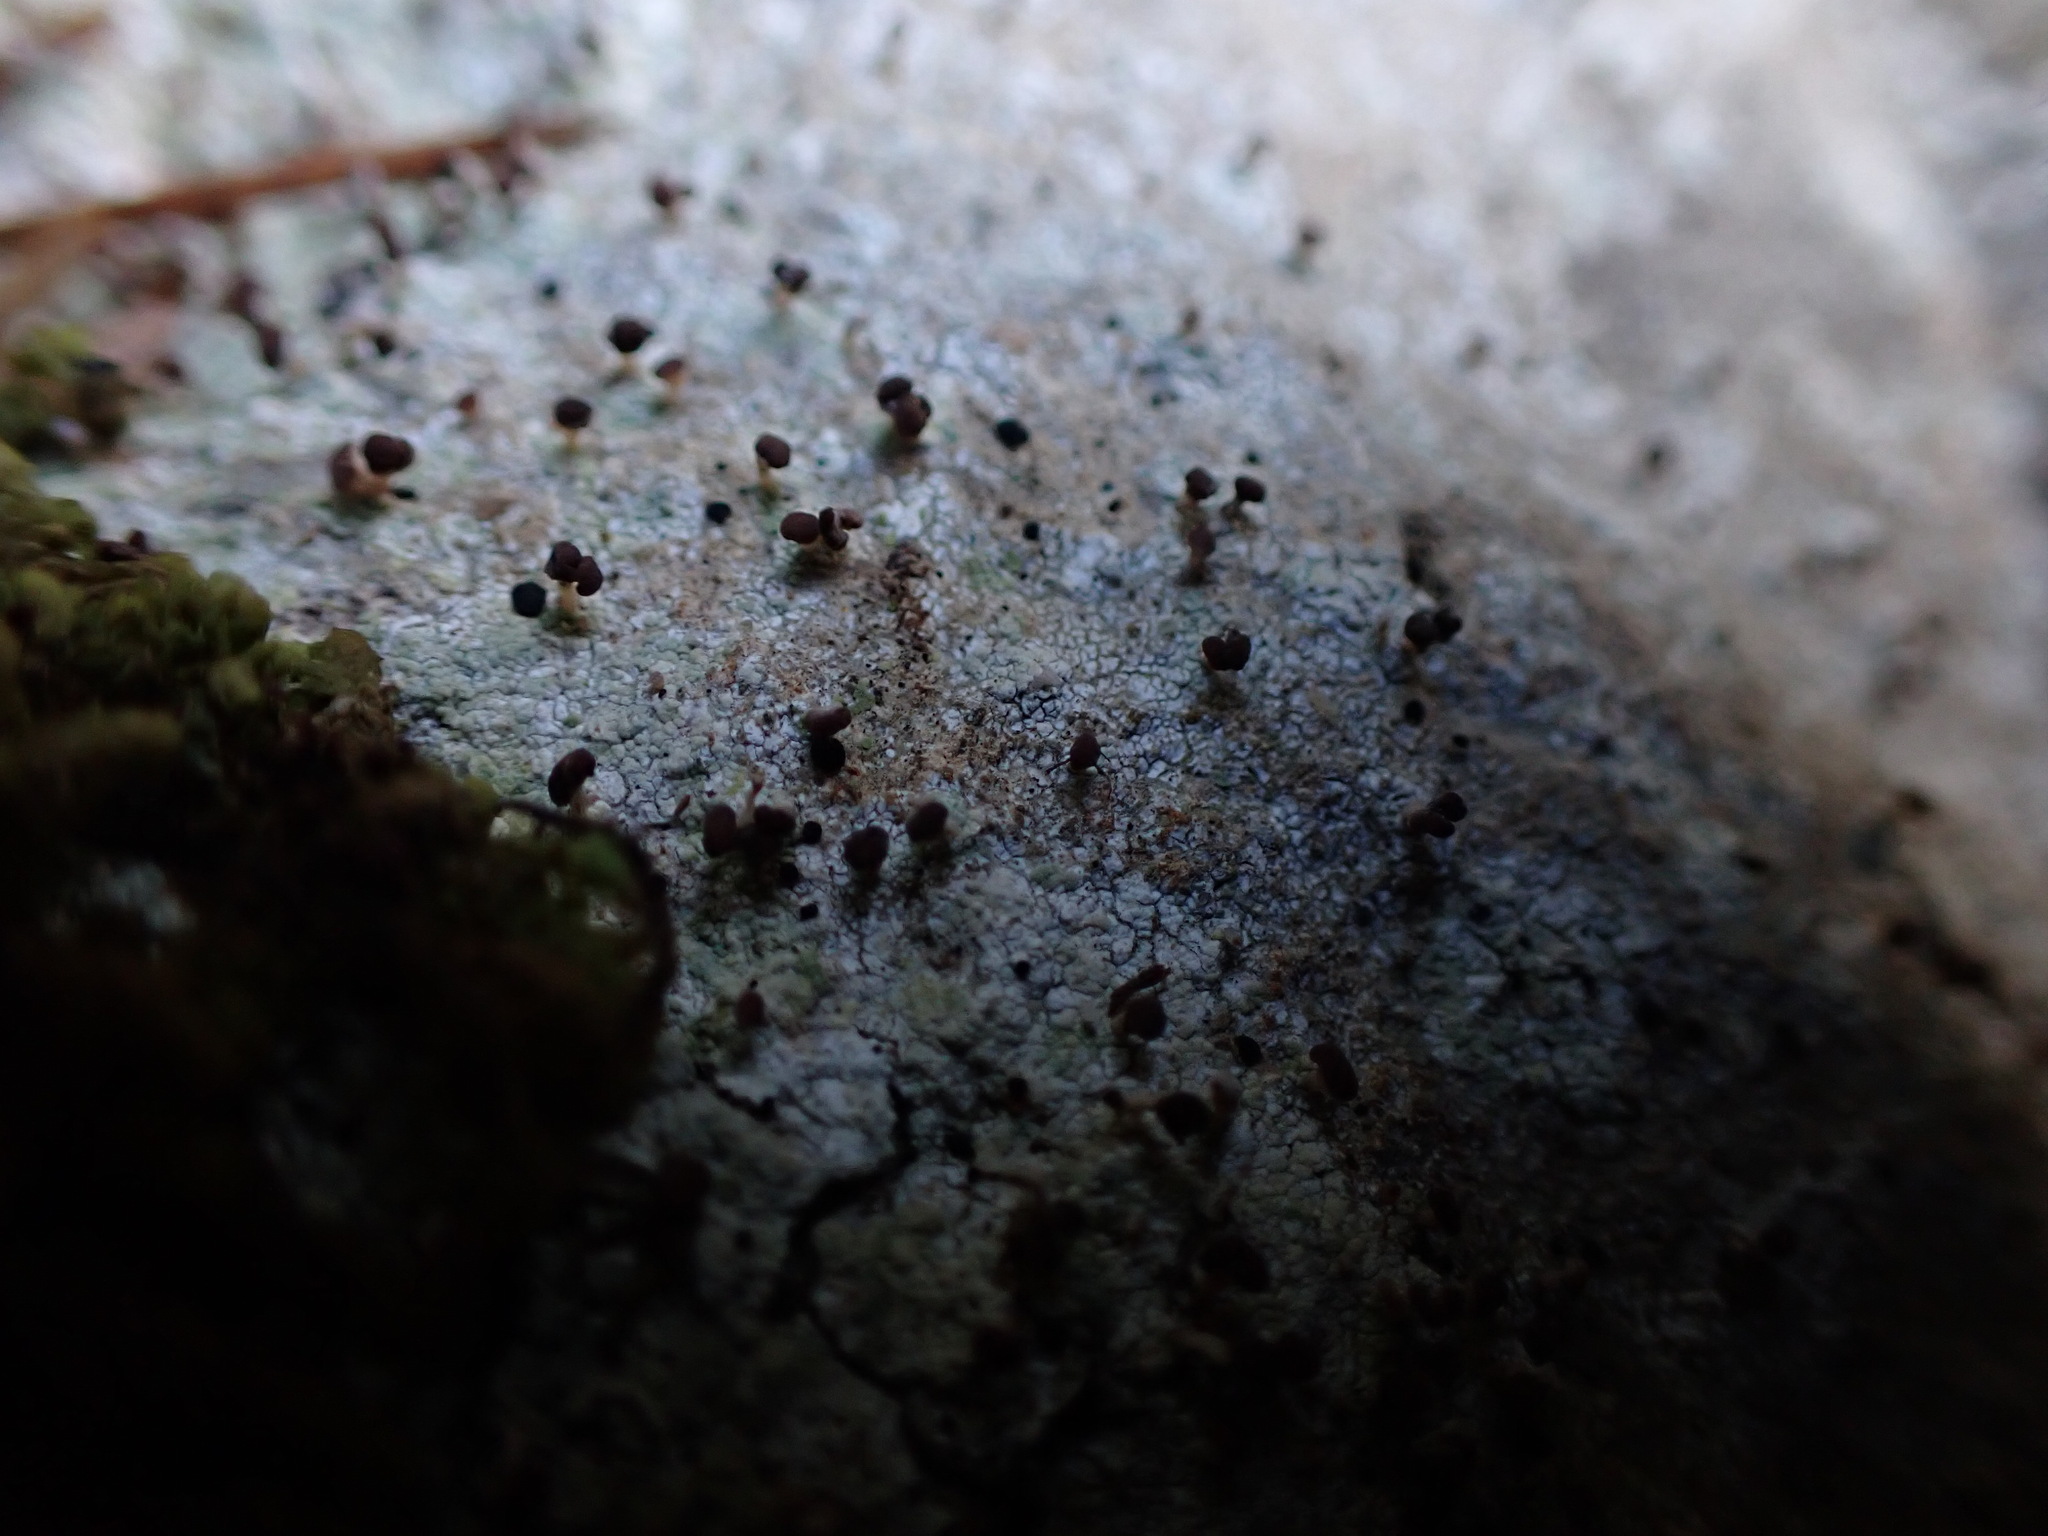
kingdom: Fungi
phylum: Ascomycota
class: Lecanoromycetes
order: Baeomycetales
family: Baeomycetaceae
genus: Baeomyces
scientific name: Baeomyces rufus
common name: Brown beret lichen
